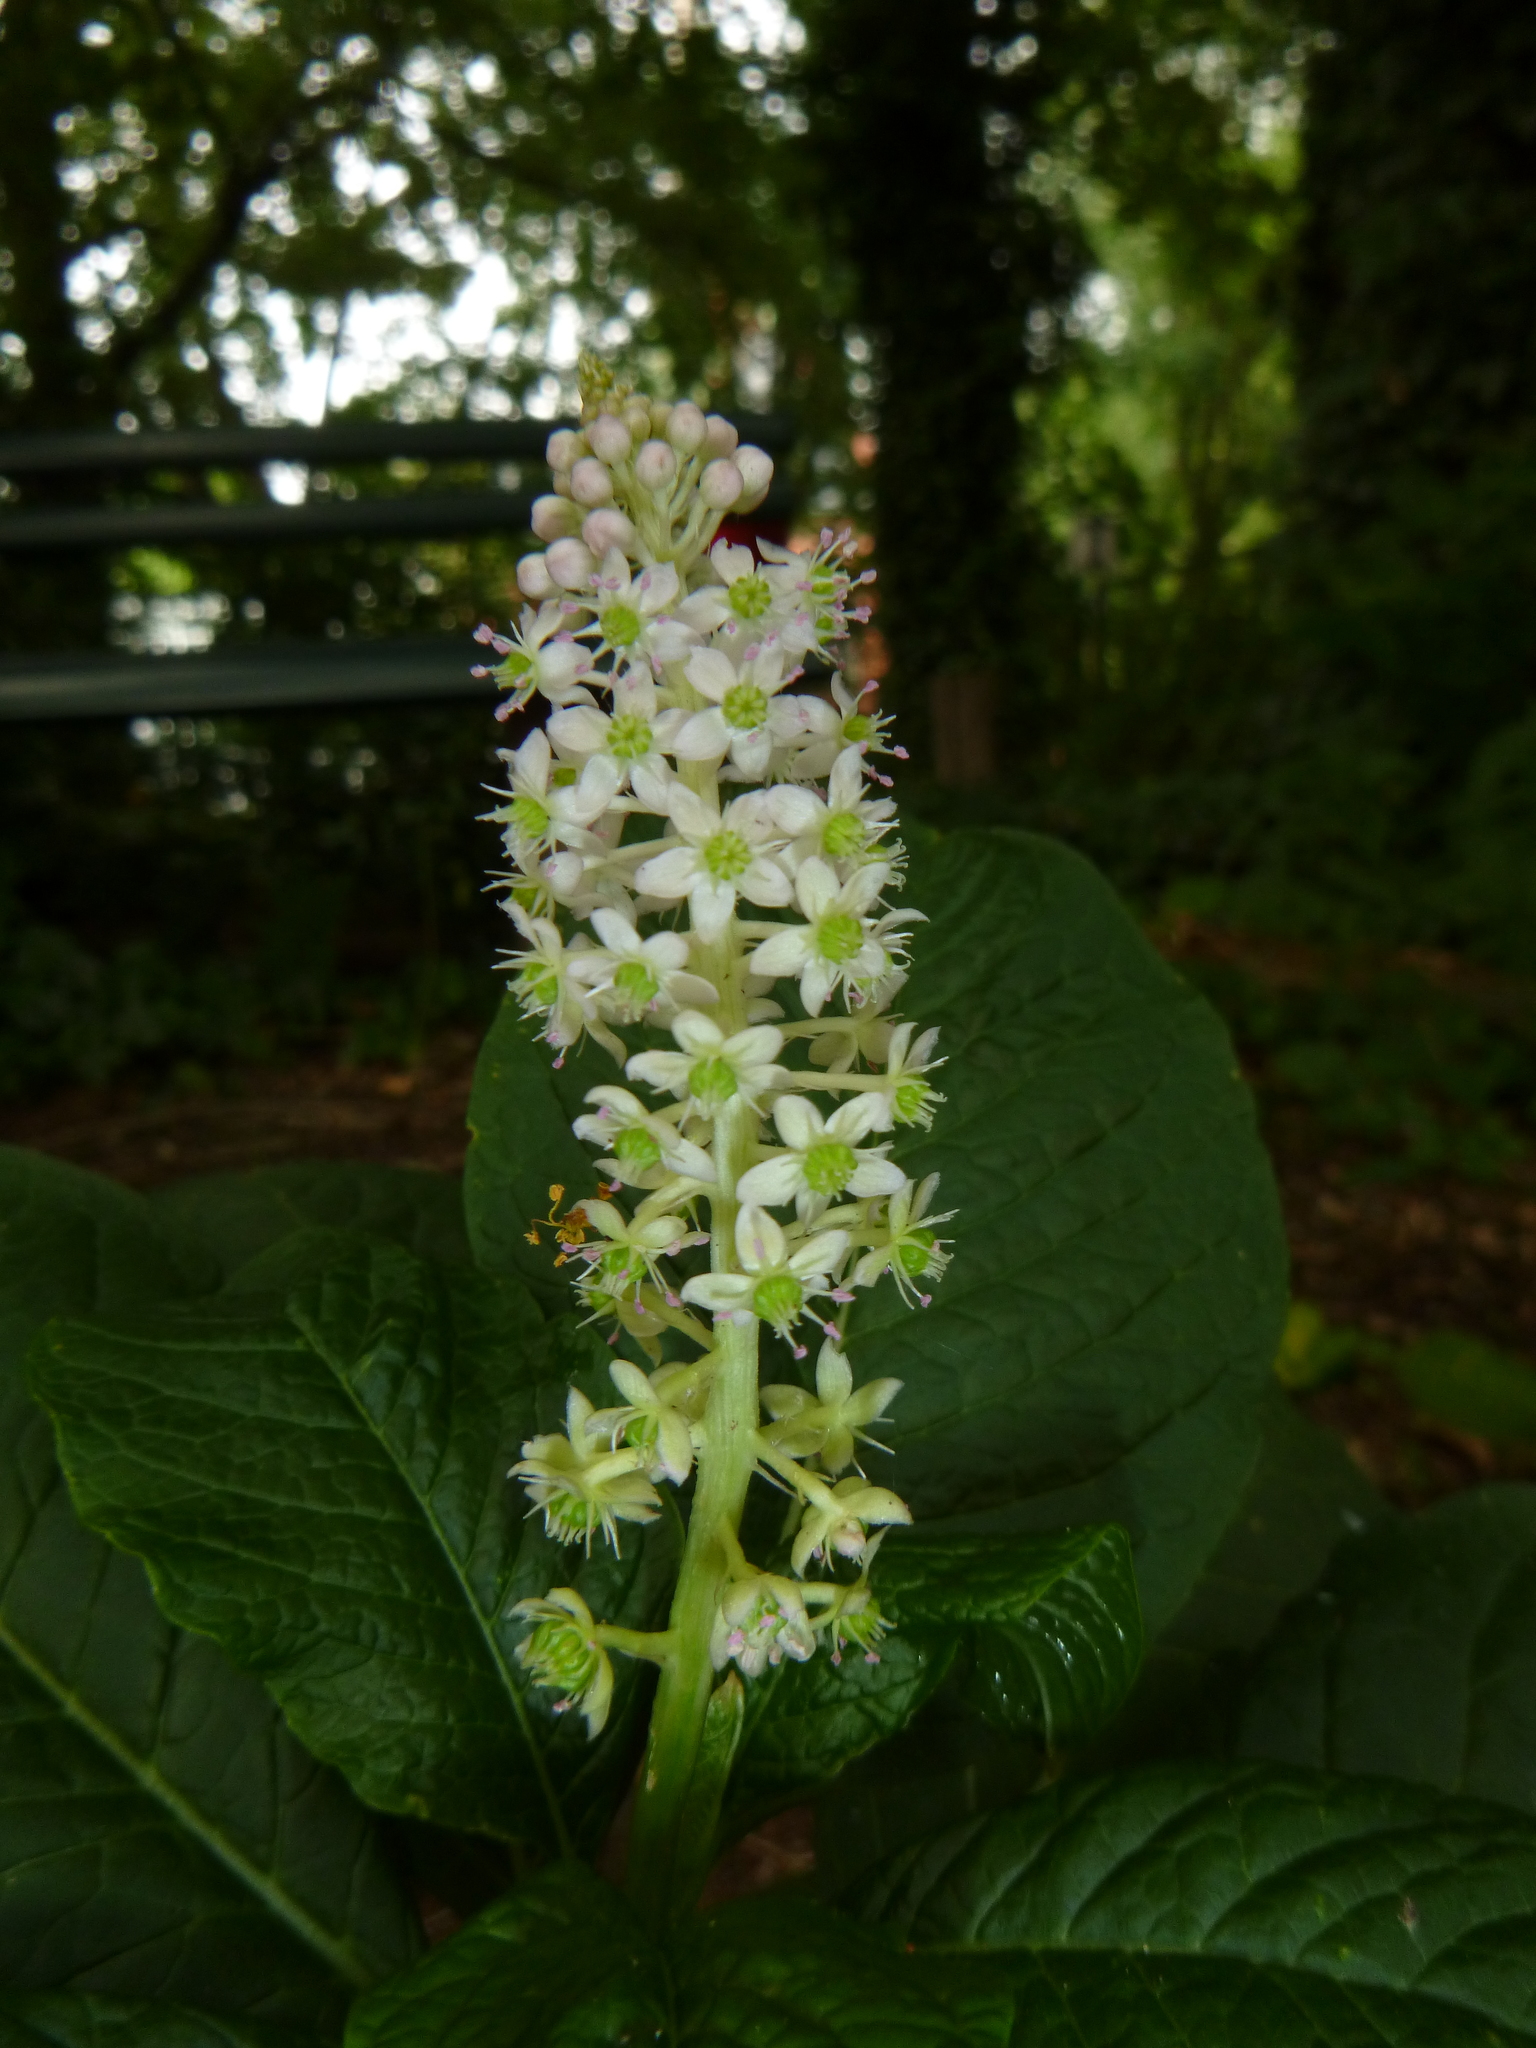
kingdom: Plantae
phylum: Tracheophyta
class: Magnoliopsida
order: Caryophyllales
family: Phytolaccaceae
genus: Phytolacca
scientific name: Phytolacca acinosa
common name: Indian pokeweed
